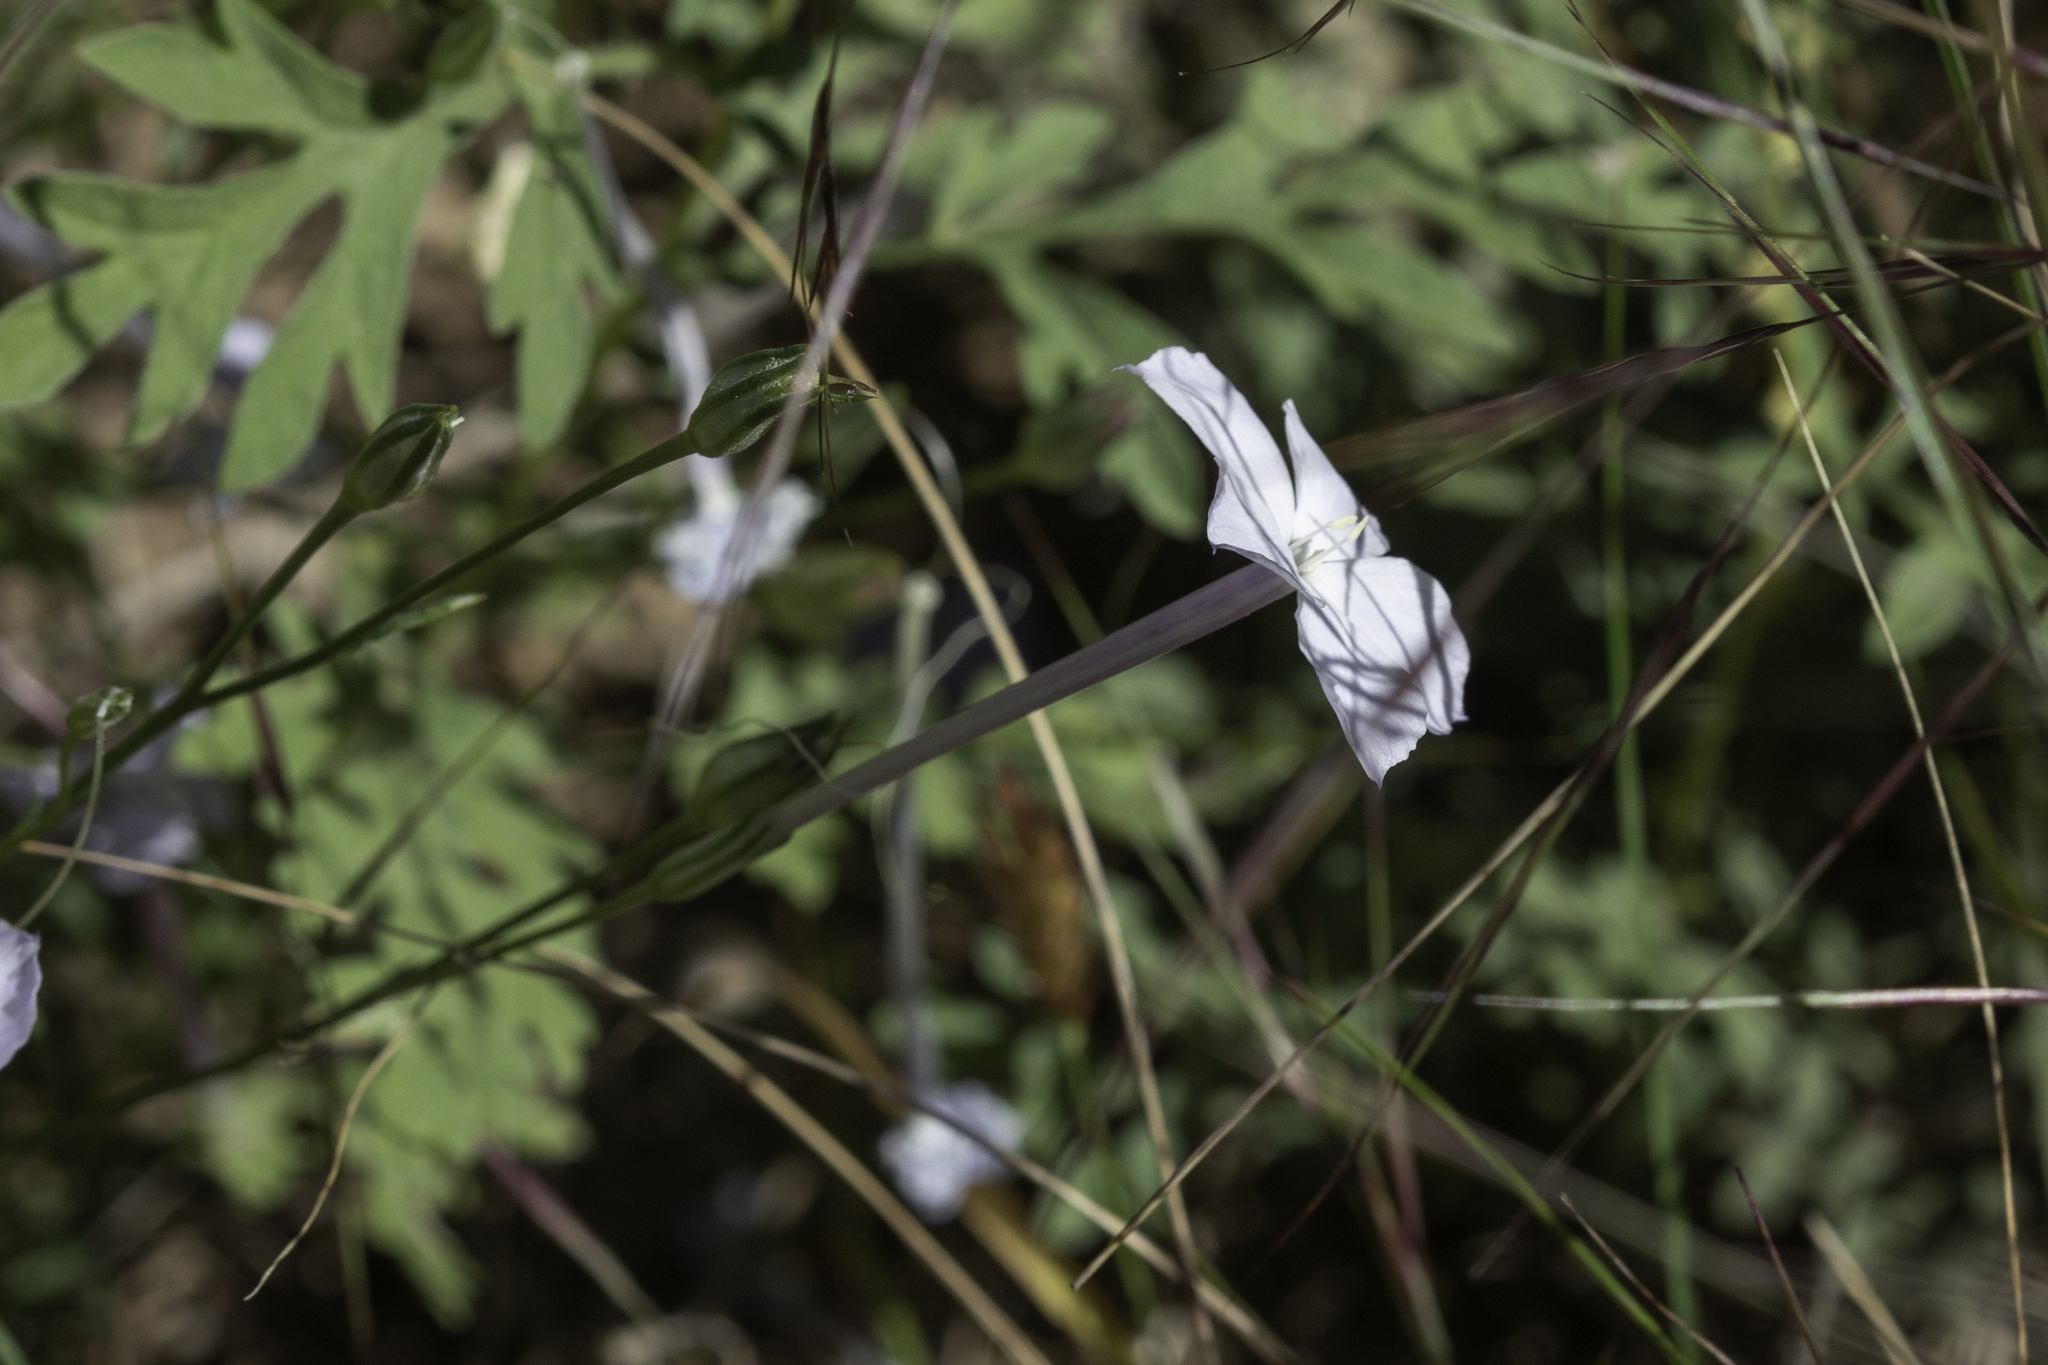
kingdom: Plantae
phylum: Tracheophyta
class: Magnoliopsida
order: Ericales
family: Polemoniaceae
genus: Ipomopsis
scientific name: Ipomopsis longiflora
